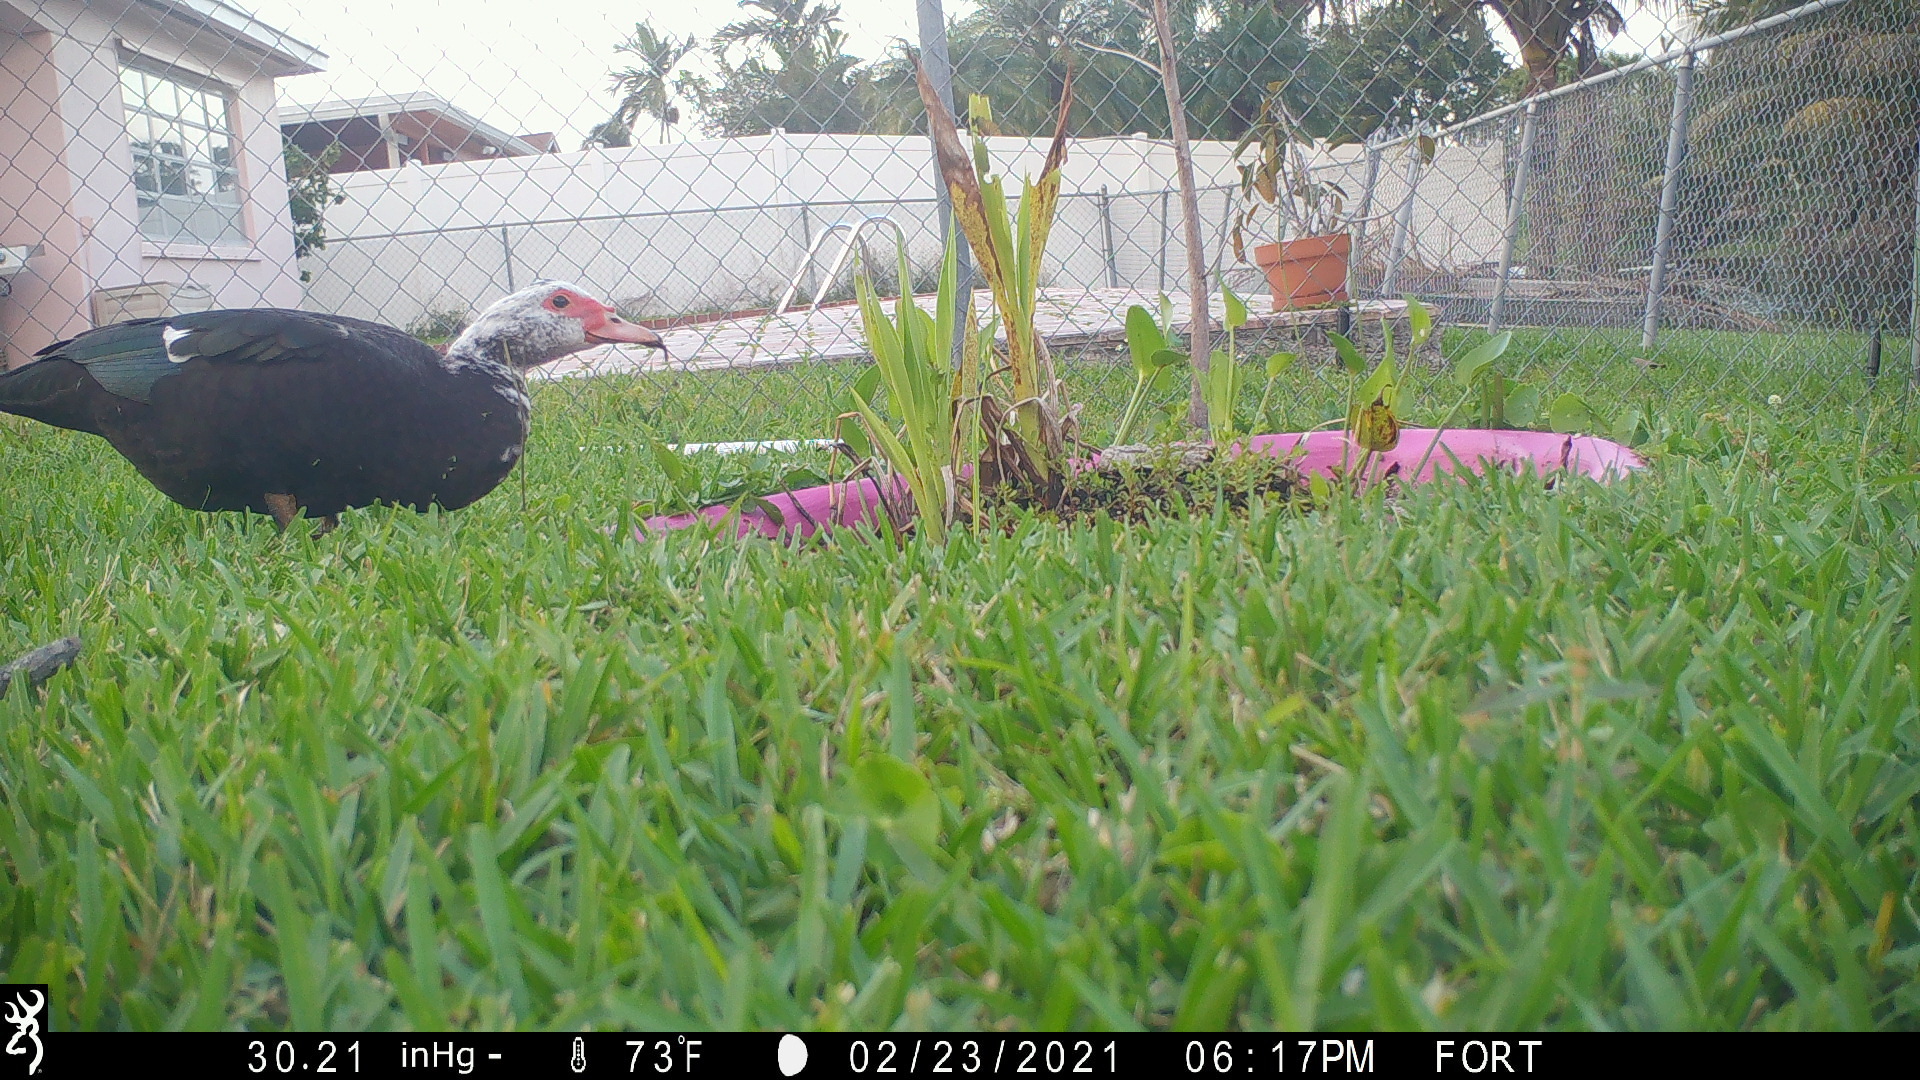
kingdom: Animalia
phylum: Chordata
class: Aves
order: Anseriformes
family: Anatidae
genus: Cairina
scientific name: Cairina moschata
